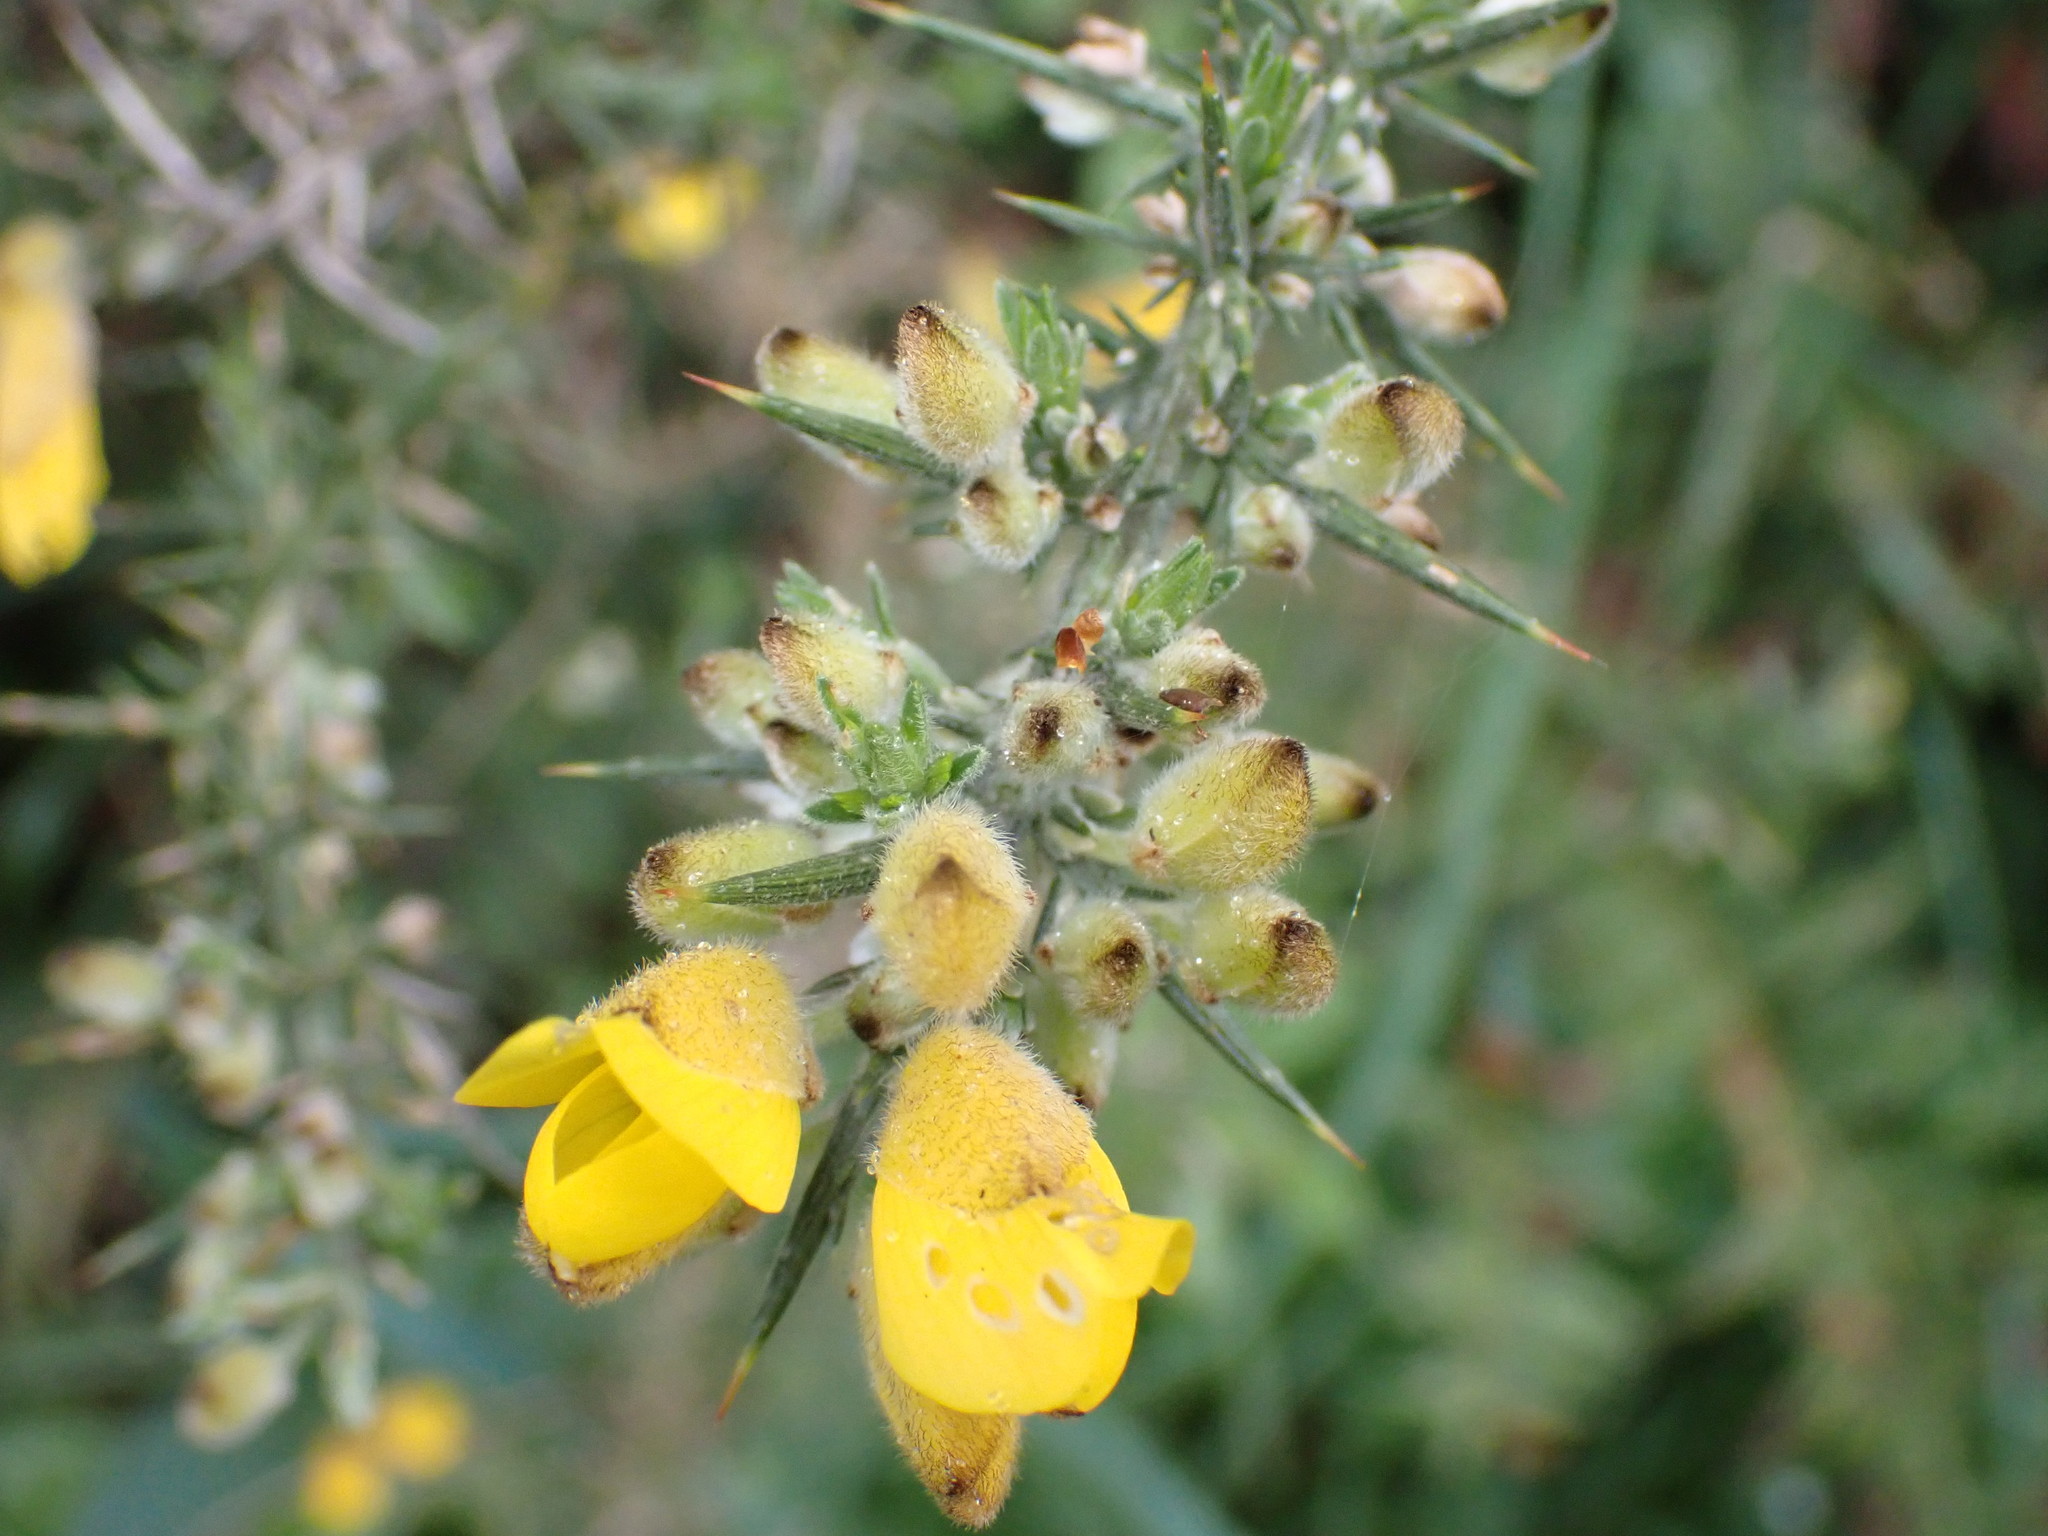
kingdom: Plantae
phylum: Tracheophyta
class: Magnoliopsida
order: Fabales
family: Fabaceae
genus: Ulex
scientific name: Ulex europaeus
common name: Common gorse
